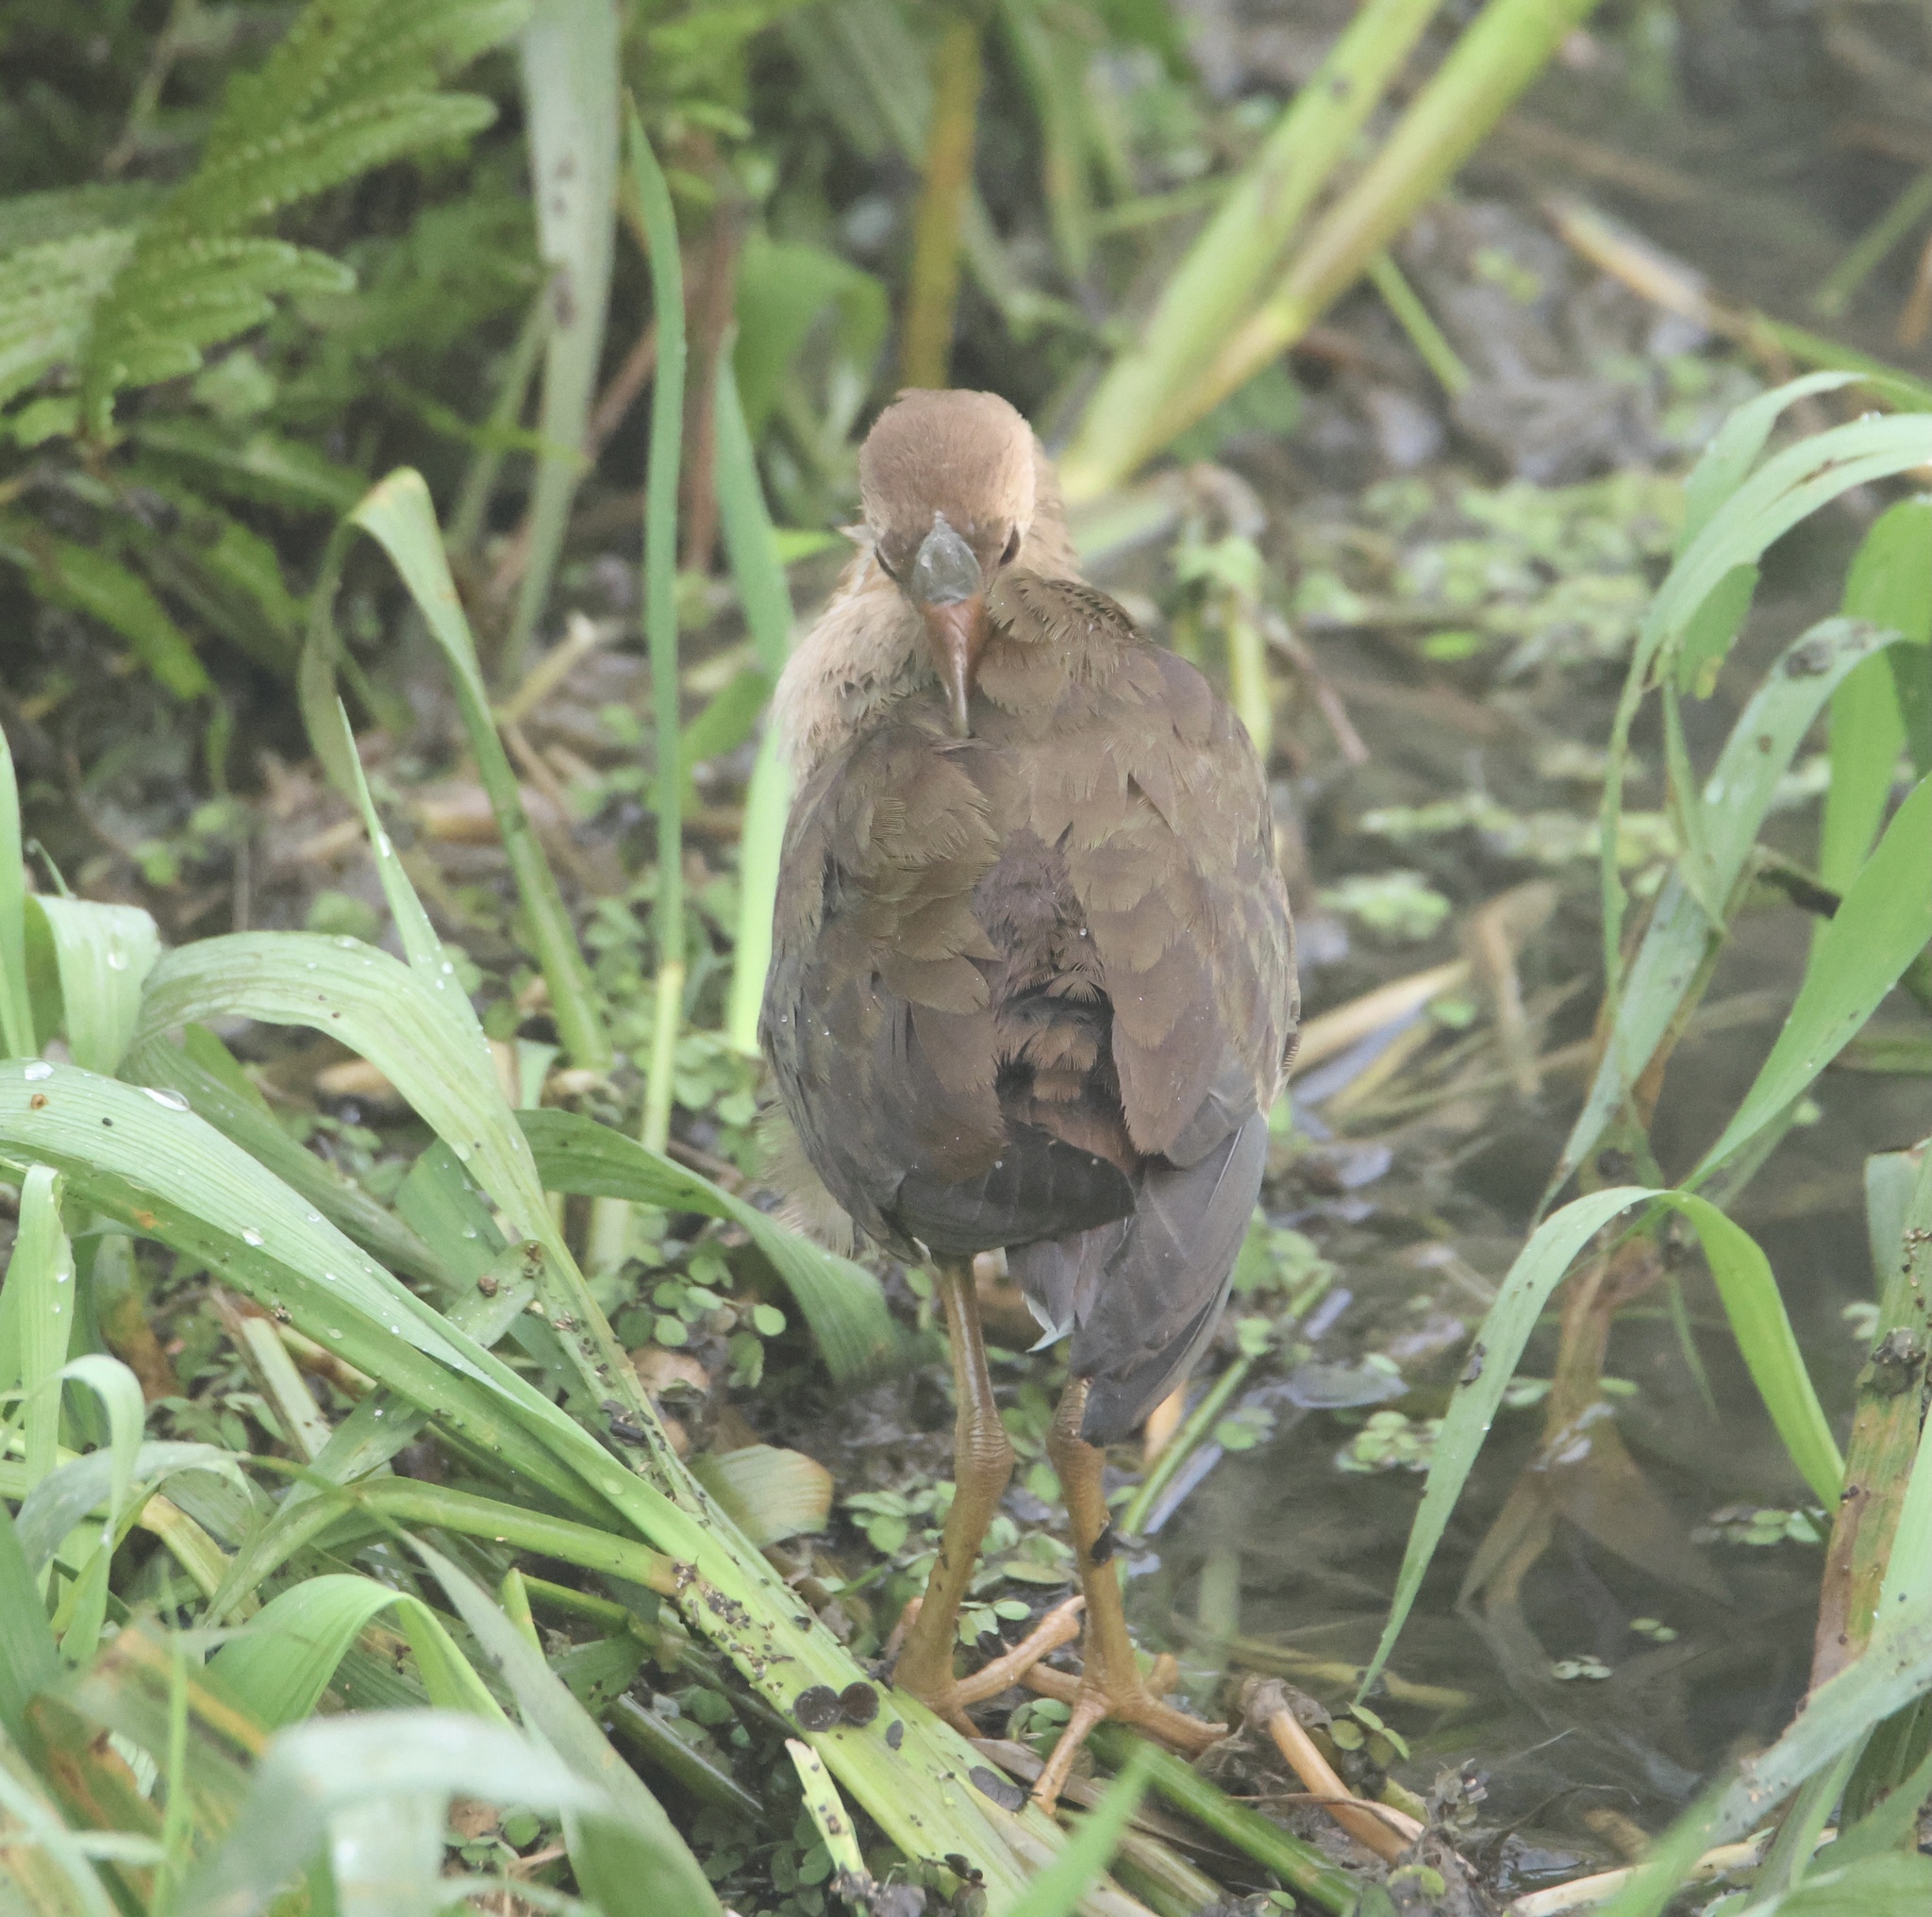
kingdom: Animalia
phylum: Chordata
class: Aves
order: Gruiformes
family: Rallidae
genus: Porphyrio
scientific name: Porphyrio martinica
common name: Purple gallinule
